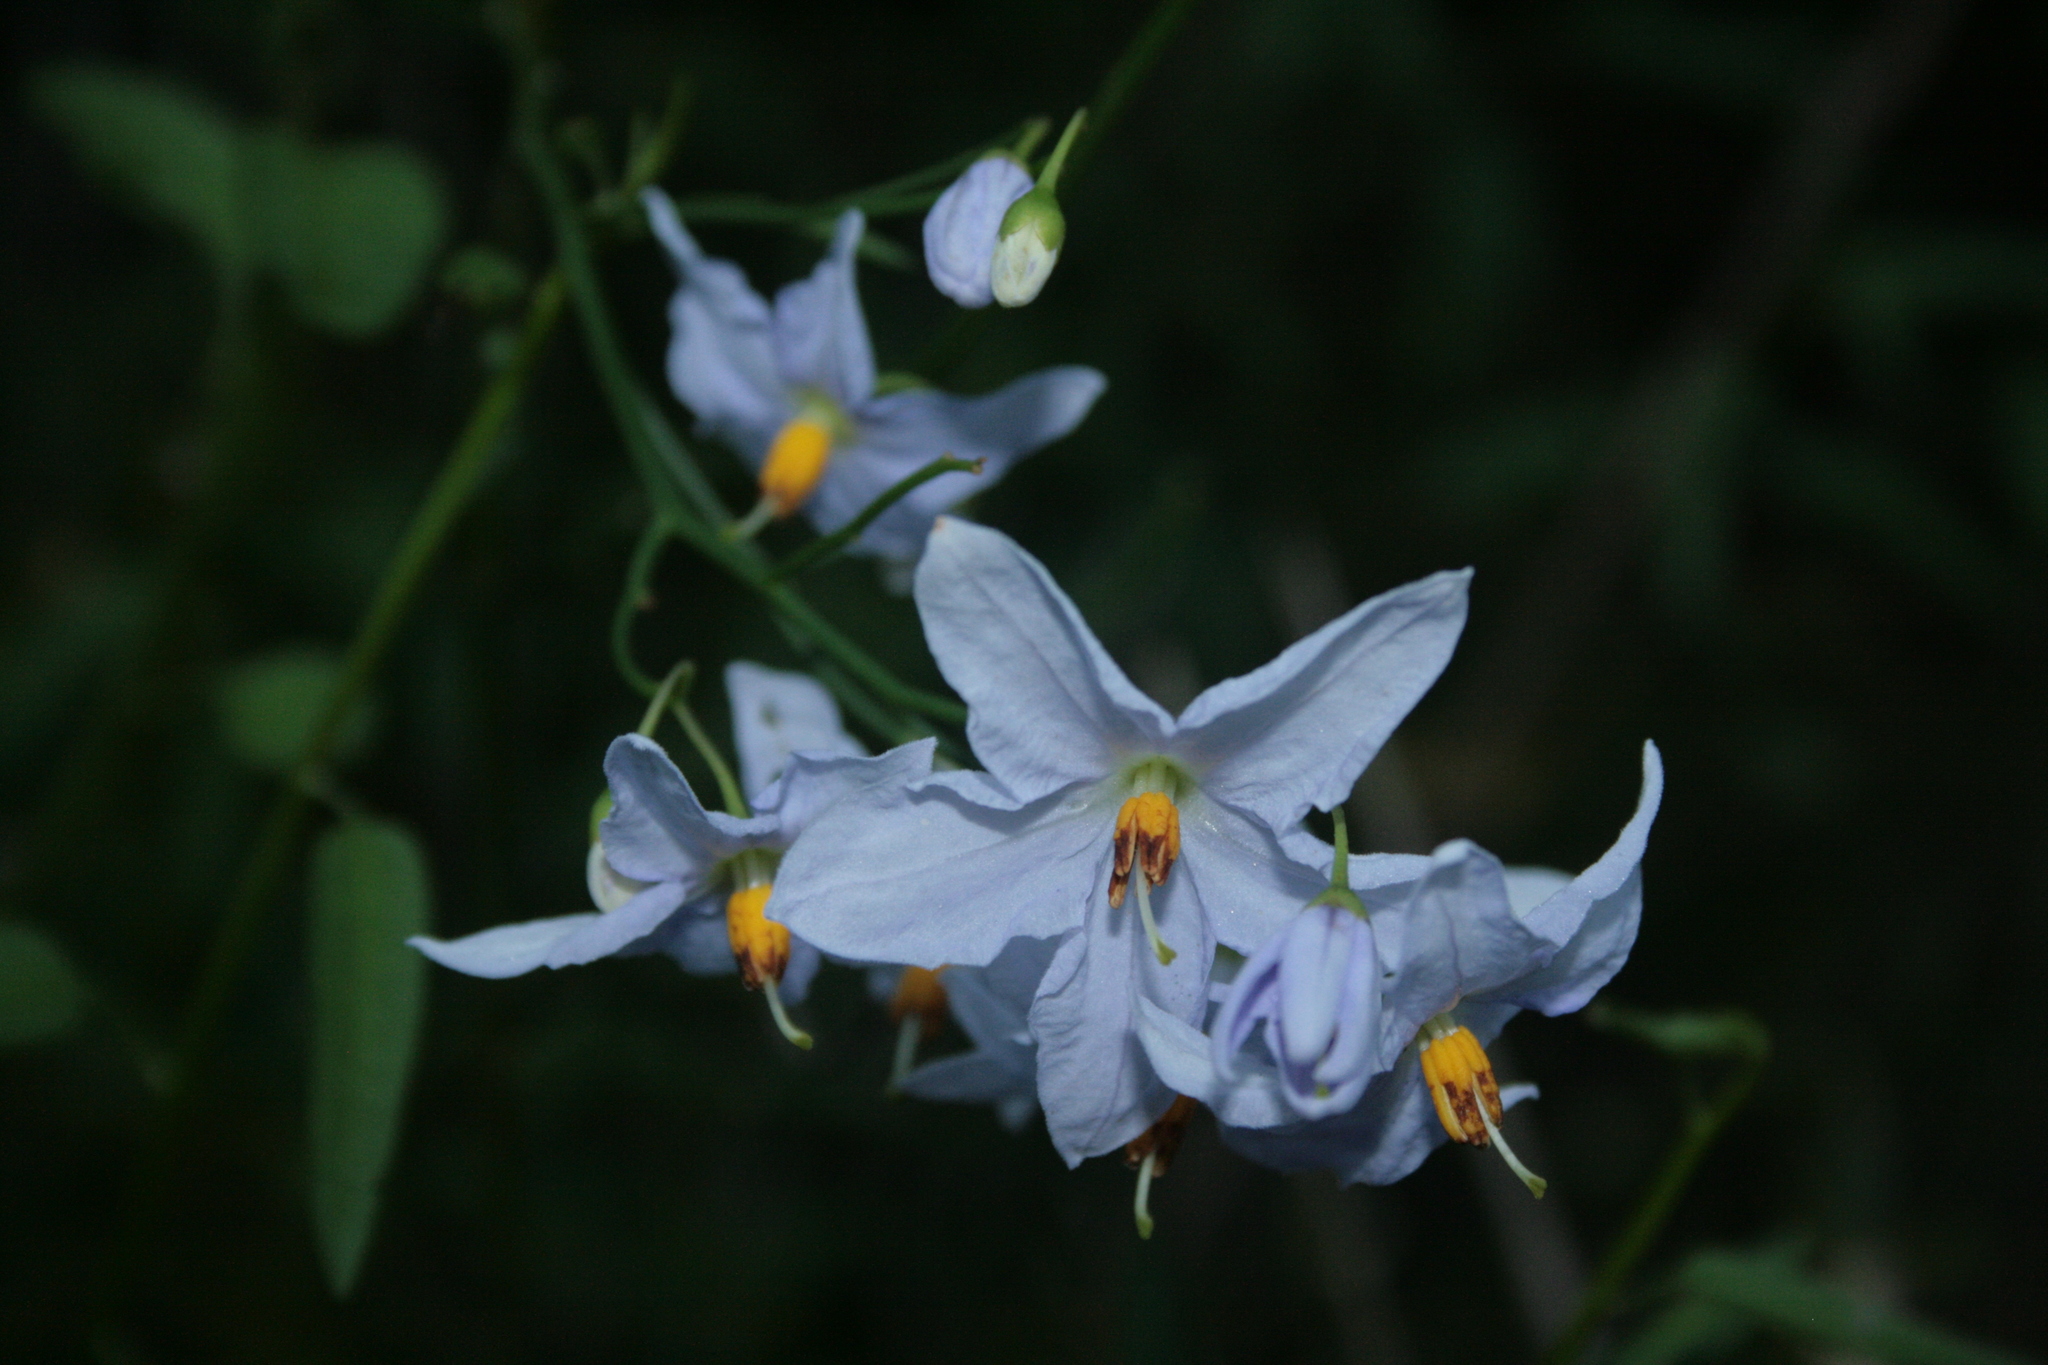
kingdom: Plantae
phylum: Tracheophyta
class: Magnoliopsida
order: Solanales
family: Solanaceae
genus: Solanum
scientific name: Solanum laxum
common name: Nightshade
